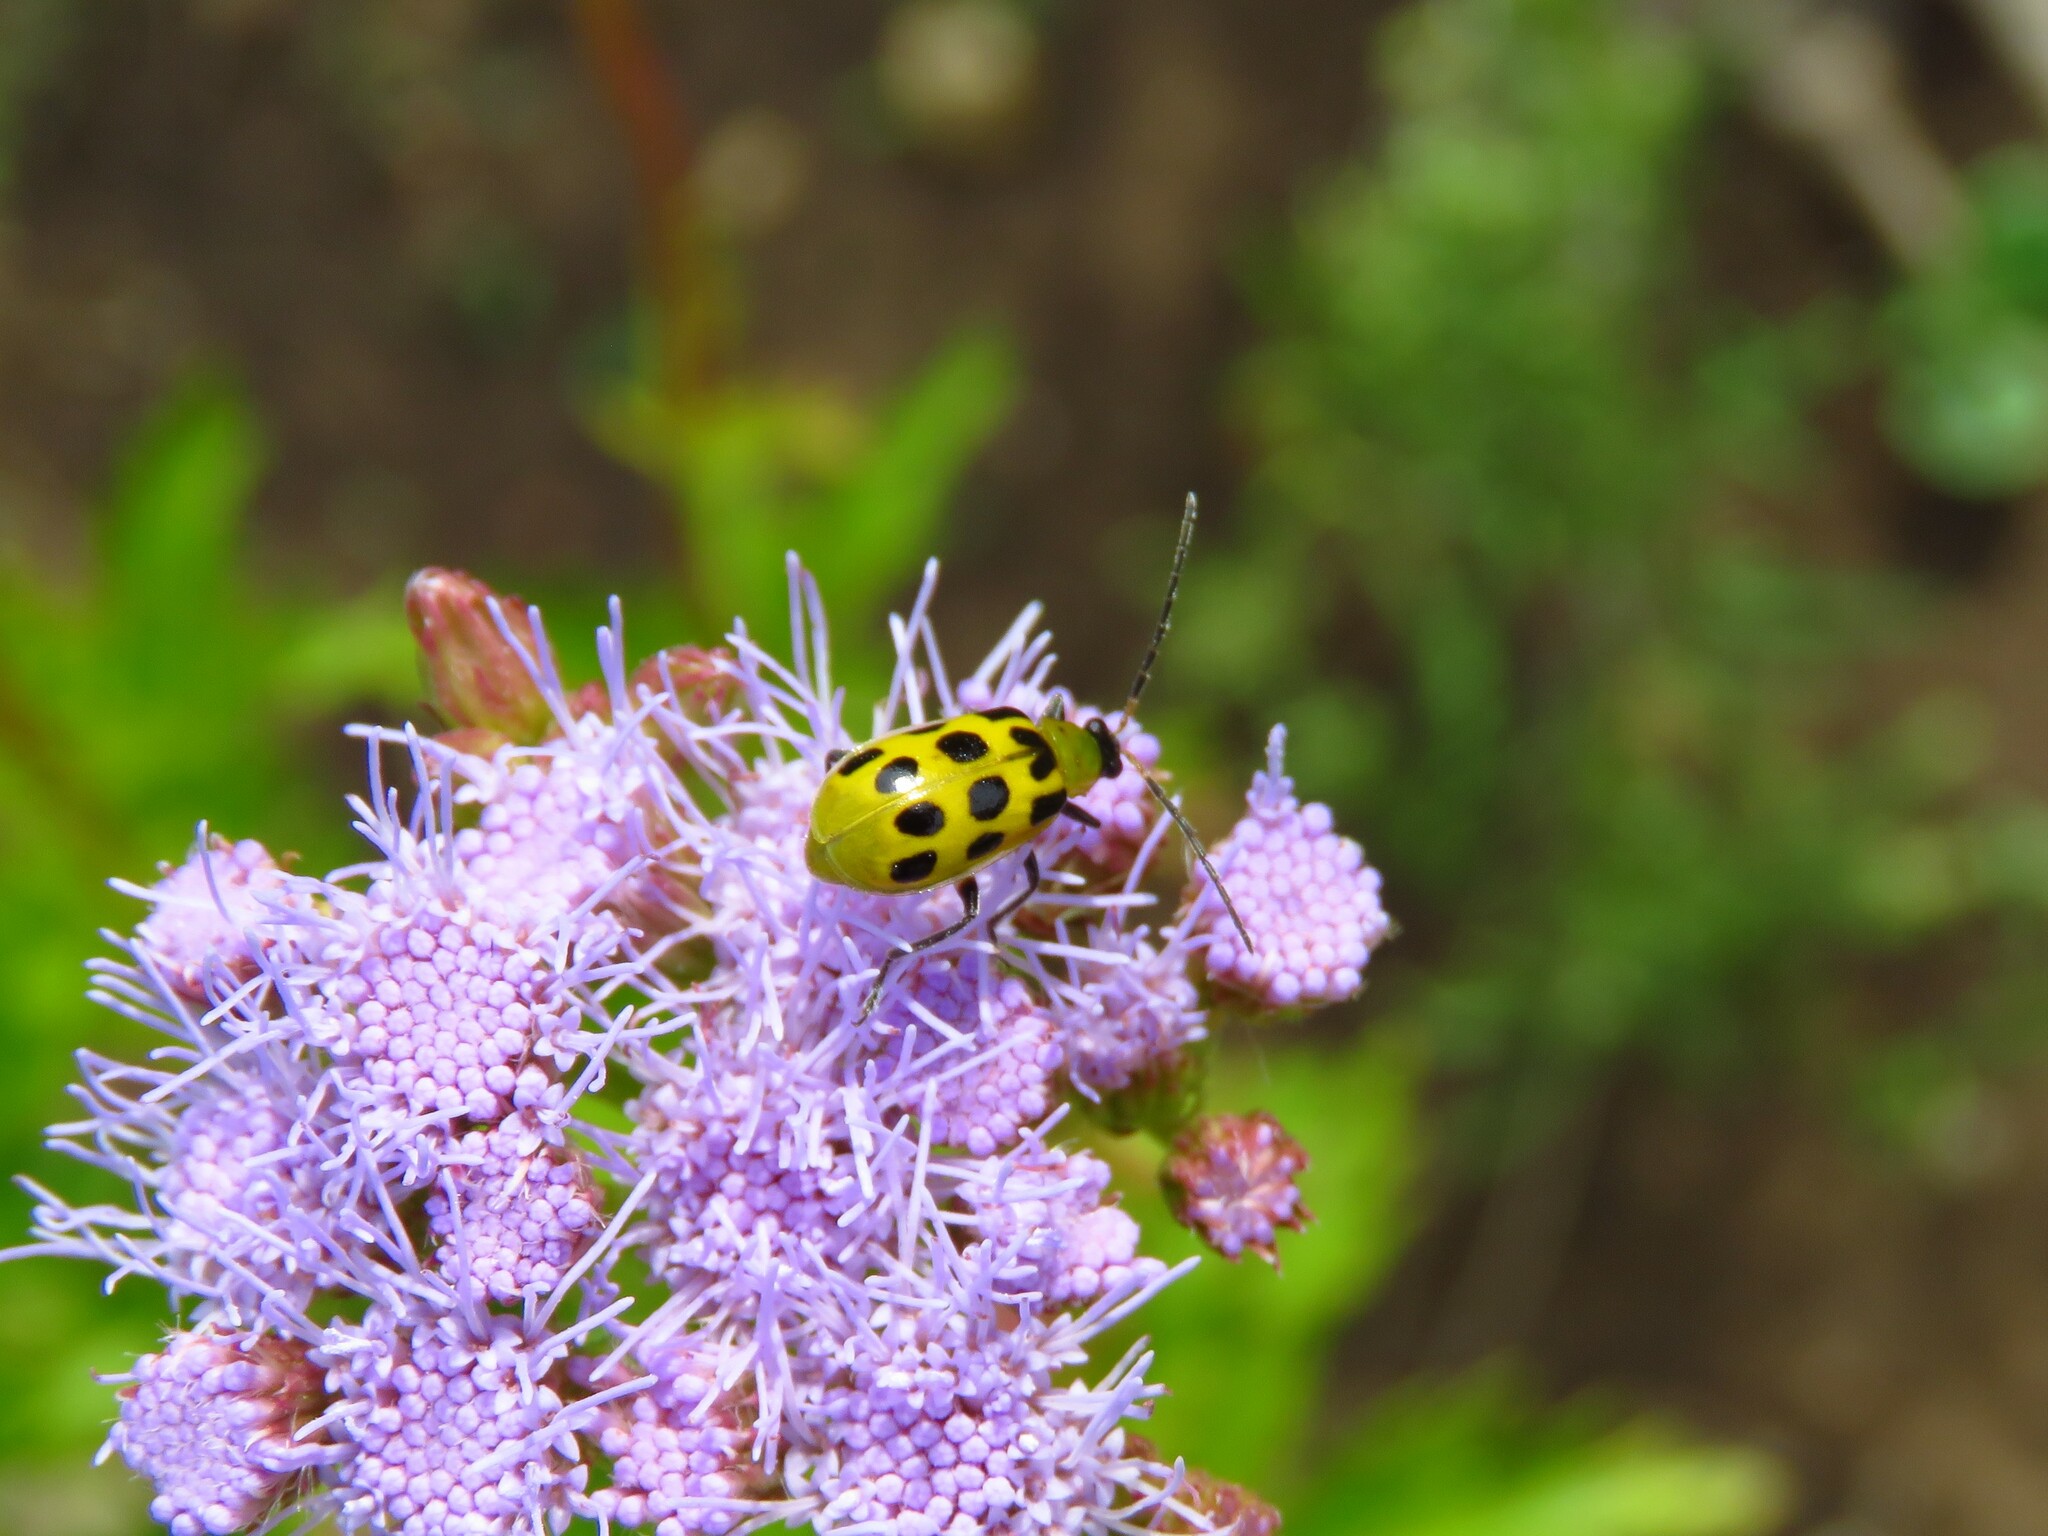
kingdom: Animalia
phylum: Arthropoda
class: Insecta
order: Coleoptera
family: Chrysomelidae
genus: Diabrotica
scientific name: Diabrotica undecimpunctata
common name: Spotted cucumber beetle
